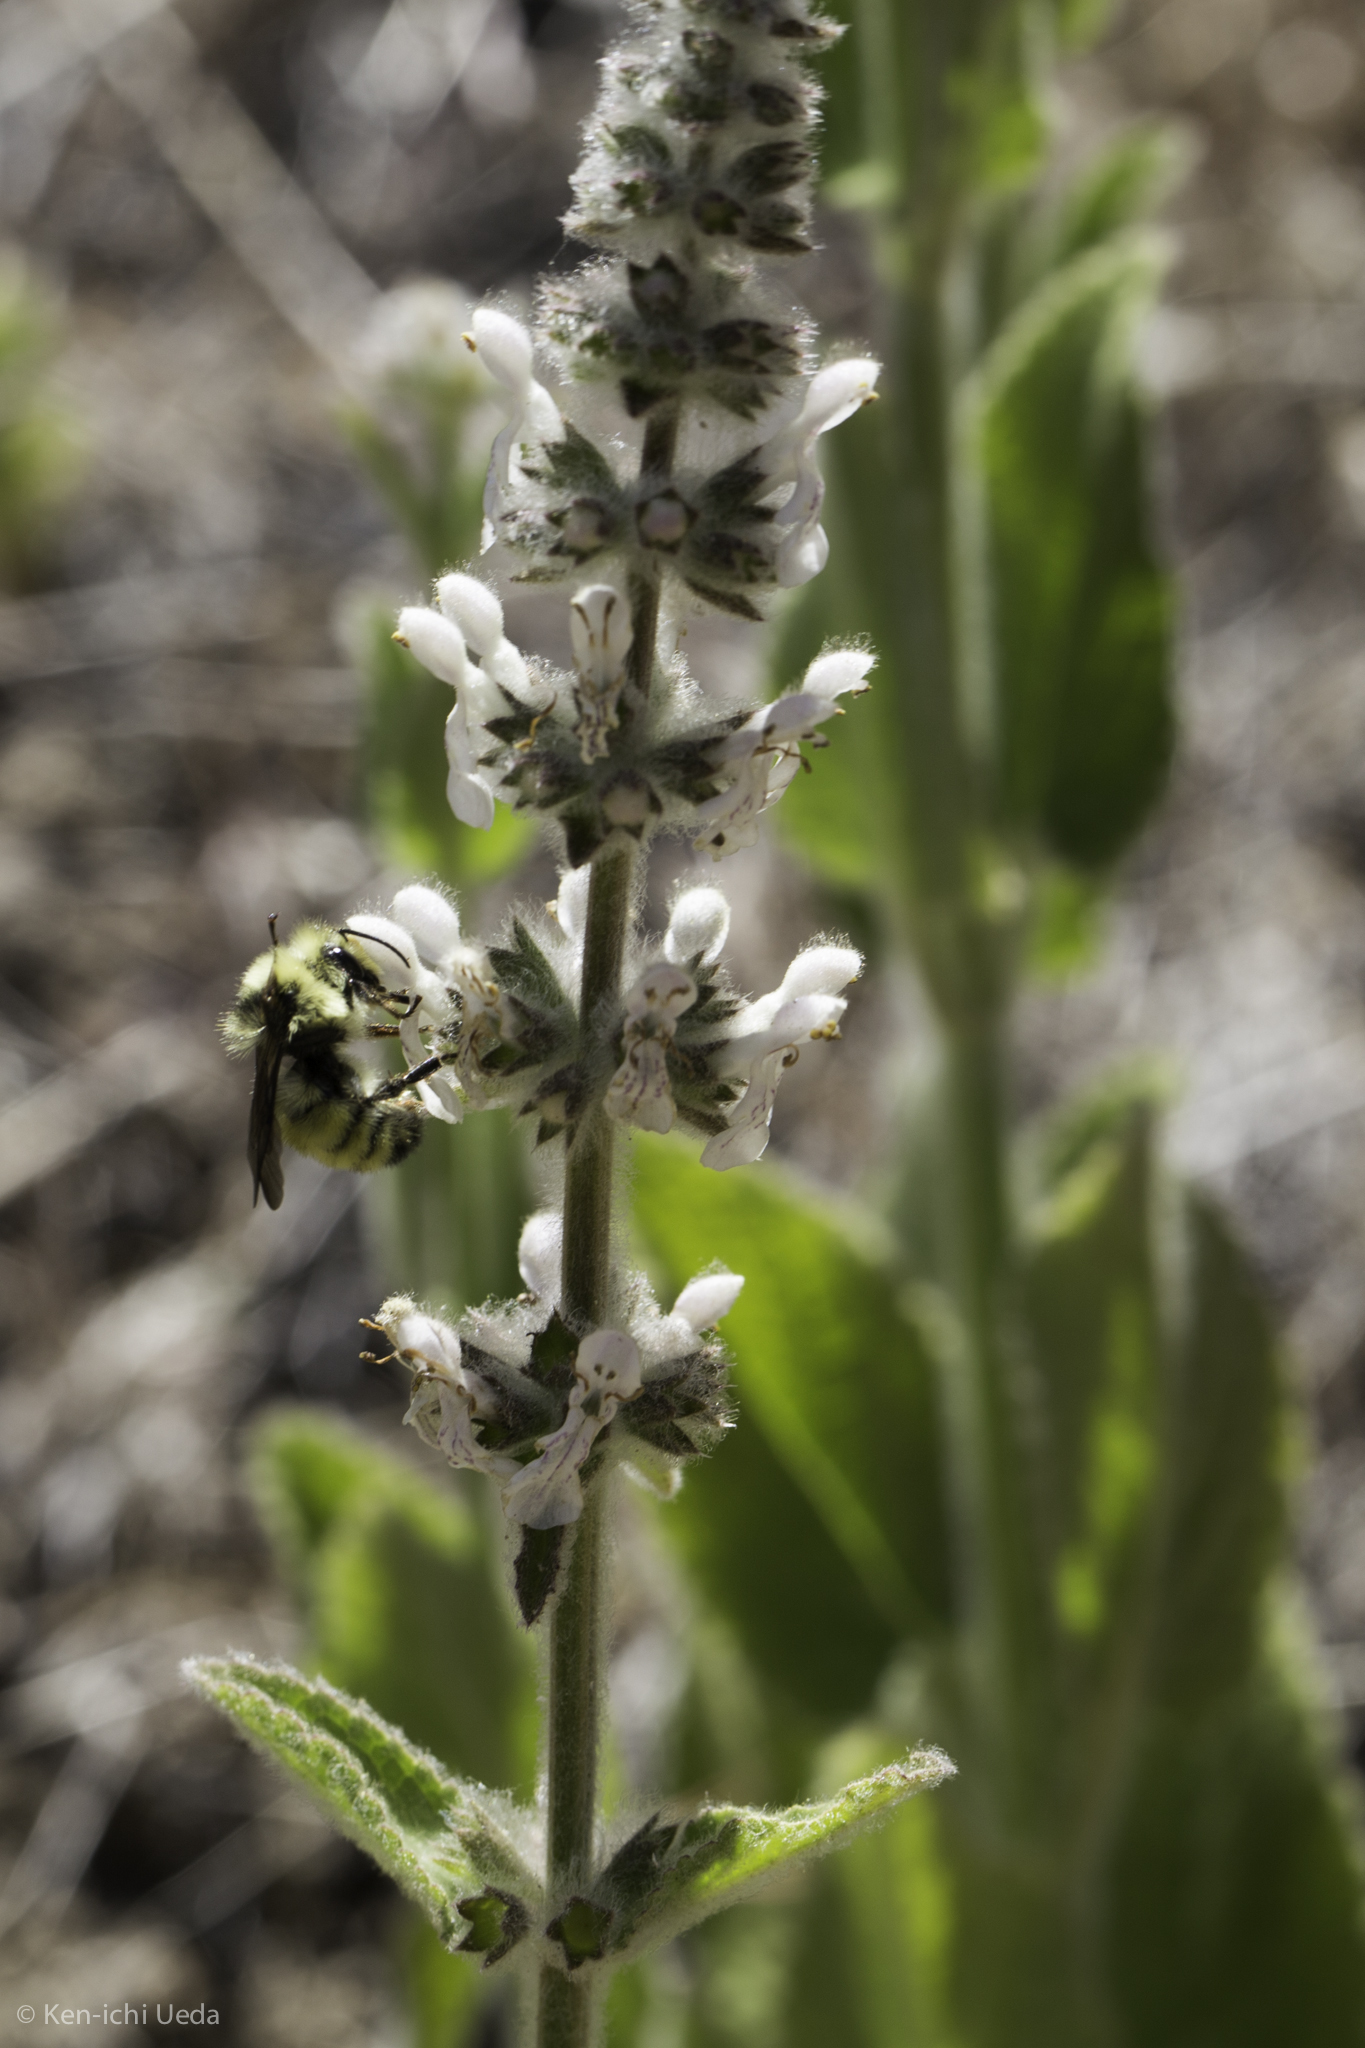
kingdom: Plantae
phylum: Tracheophyta
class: Magnoliopsida
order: Lamiales
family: Lamiaceae
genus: Stachys
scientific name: Stachys albens
